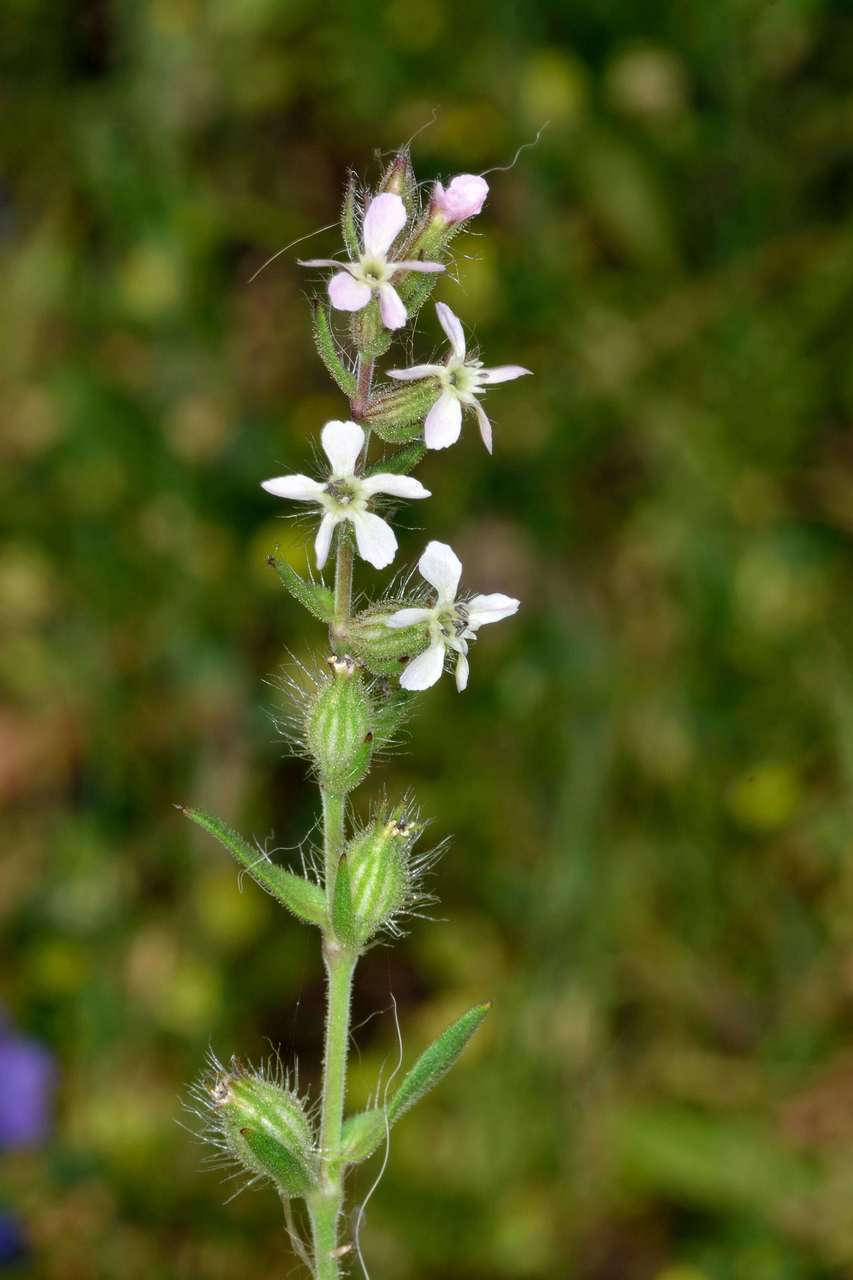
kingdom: Plantae
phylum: Tracheophyta
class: Magnoliopsida
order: Caryophyllales
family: Caryophyllaceae
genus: Silene
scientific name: Silene gallica
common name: Small-flowered catchfly
